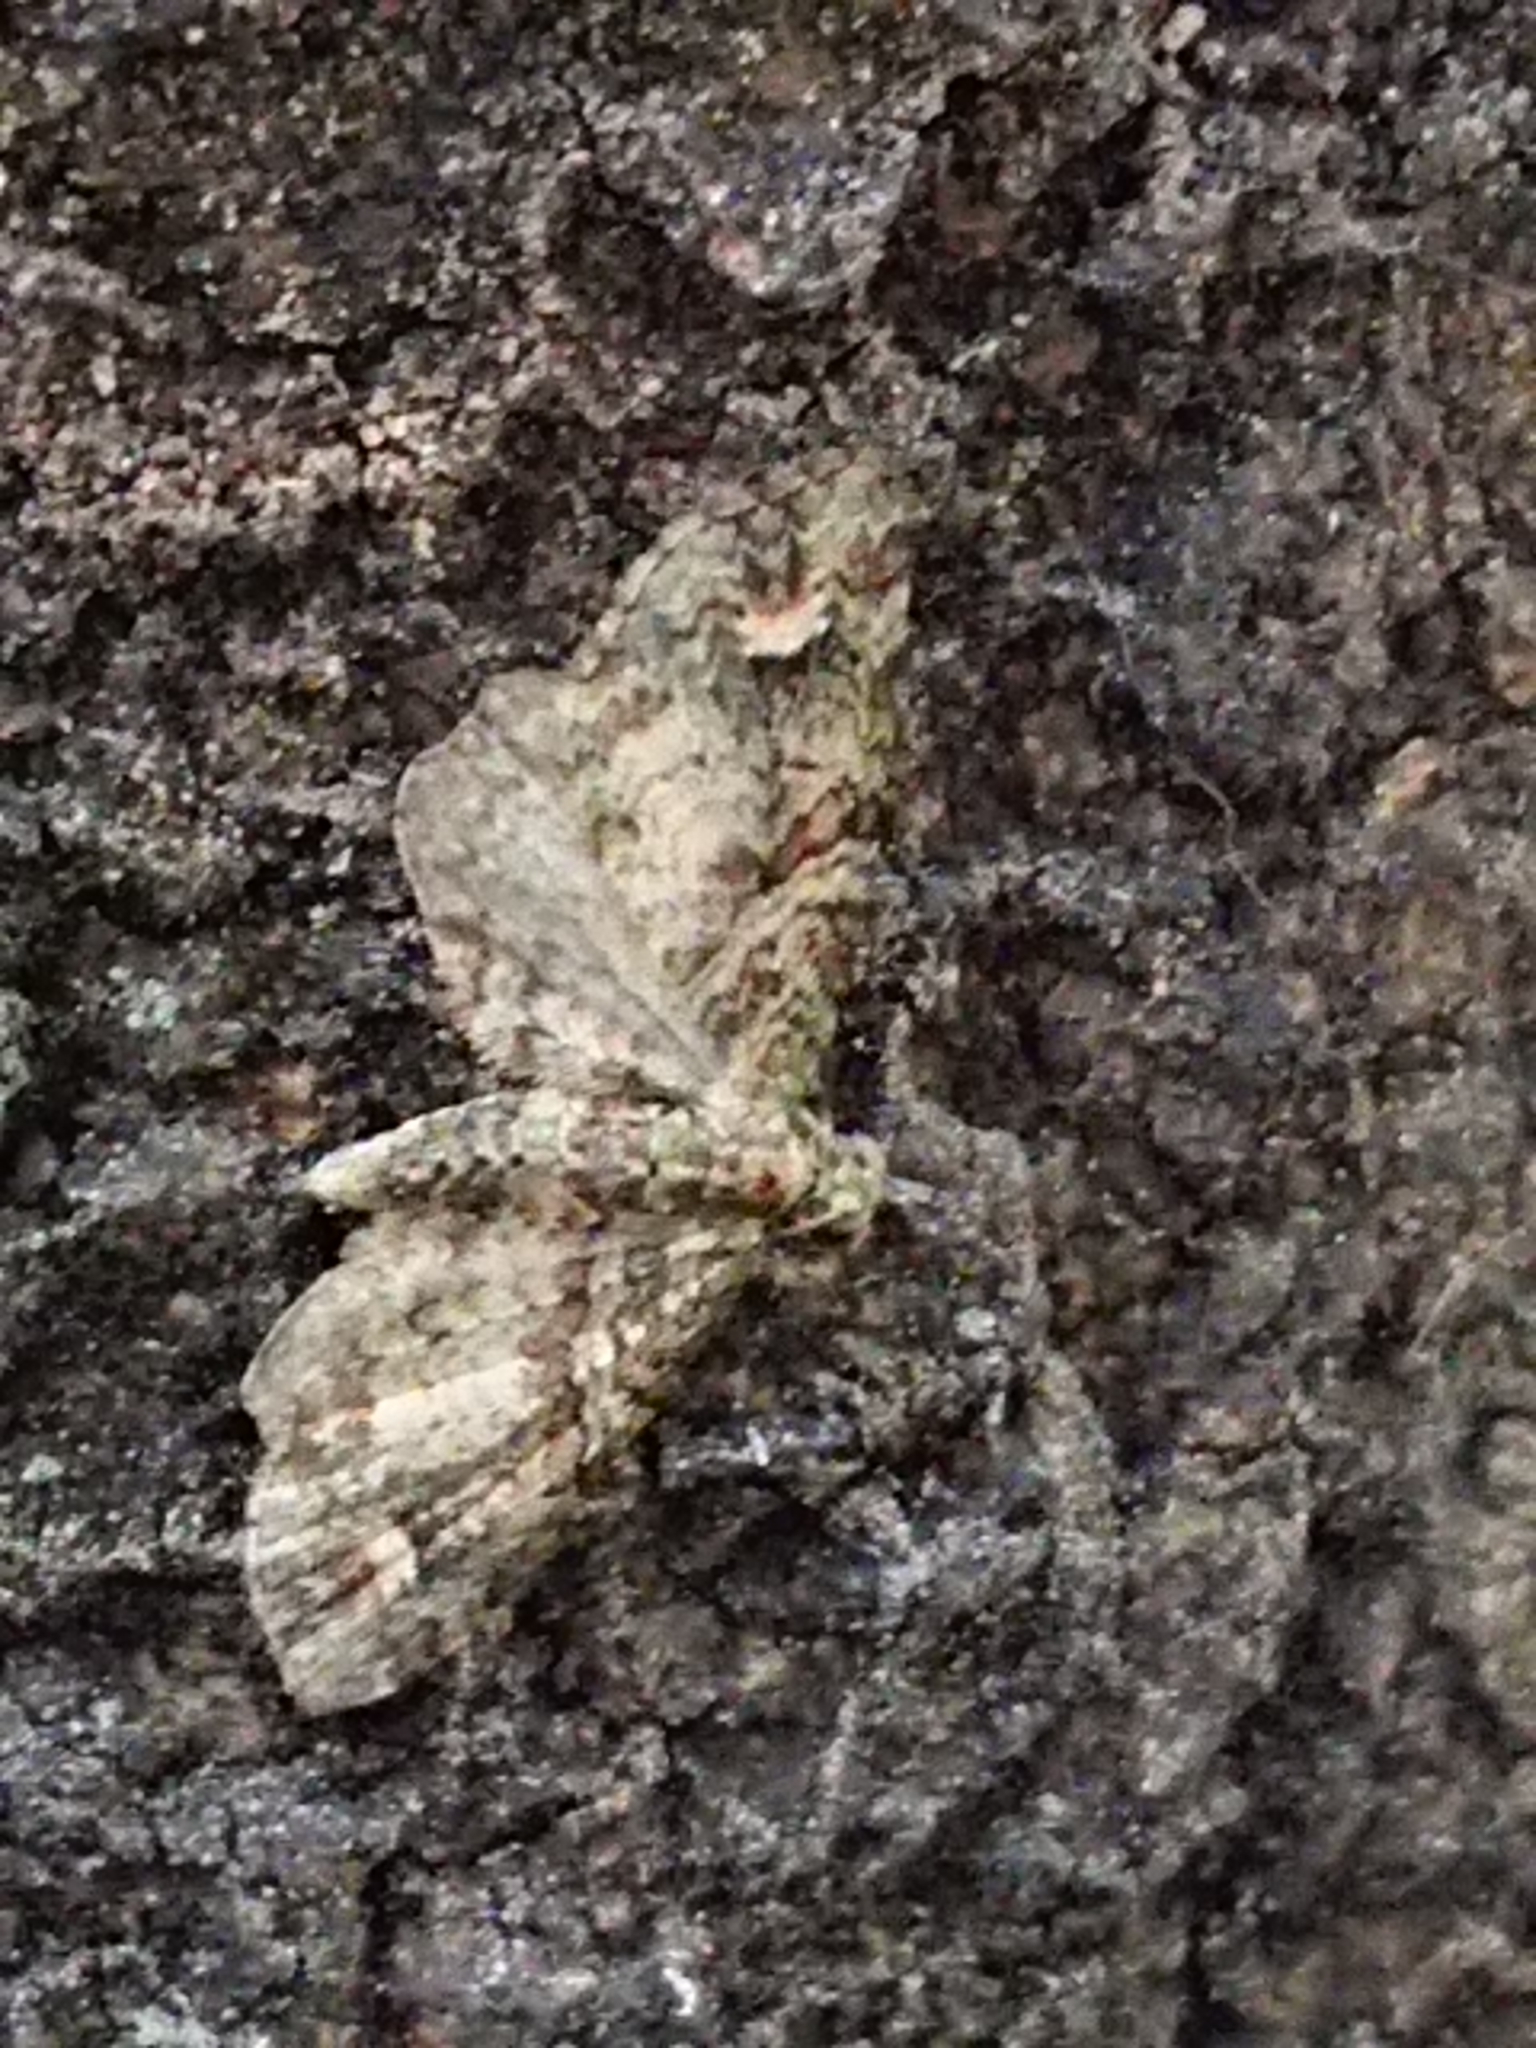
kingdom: Animalia
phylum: Arthropoda
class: Insecta
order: Lepidoptera
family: Geometridae
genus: Idaea
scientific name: Idaea mutanda
